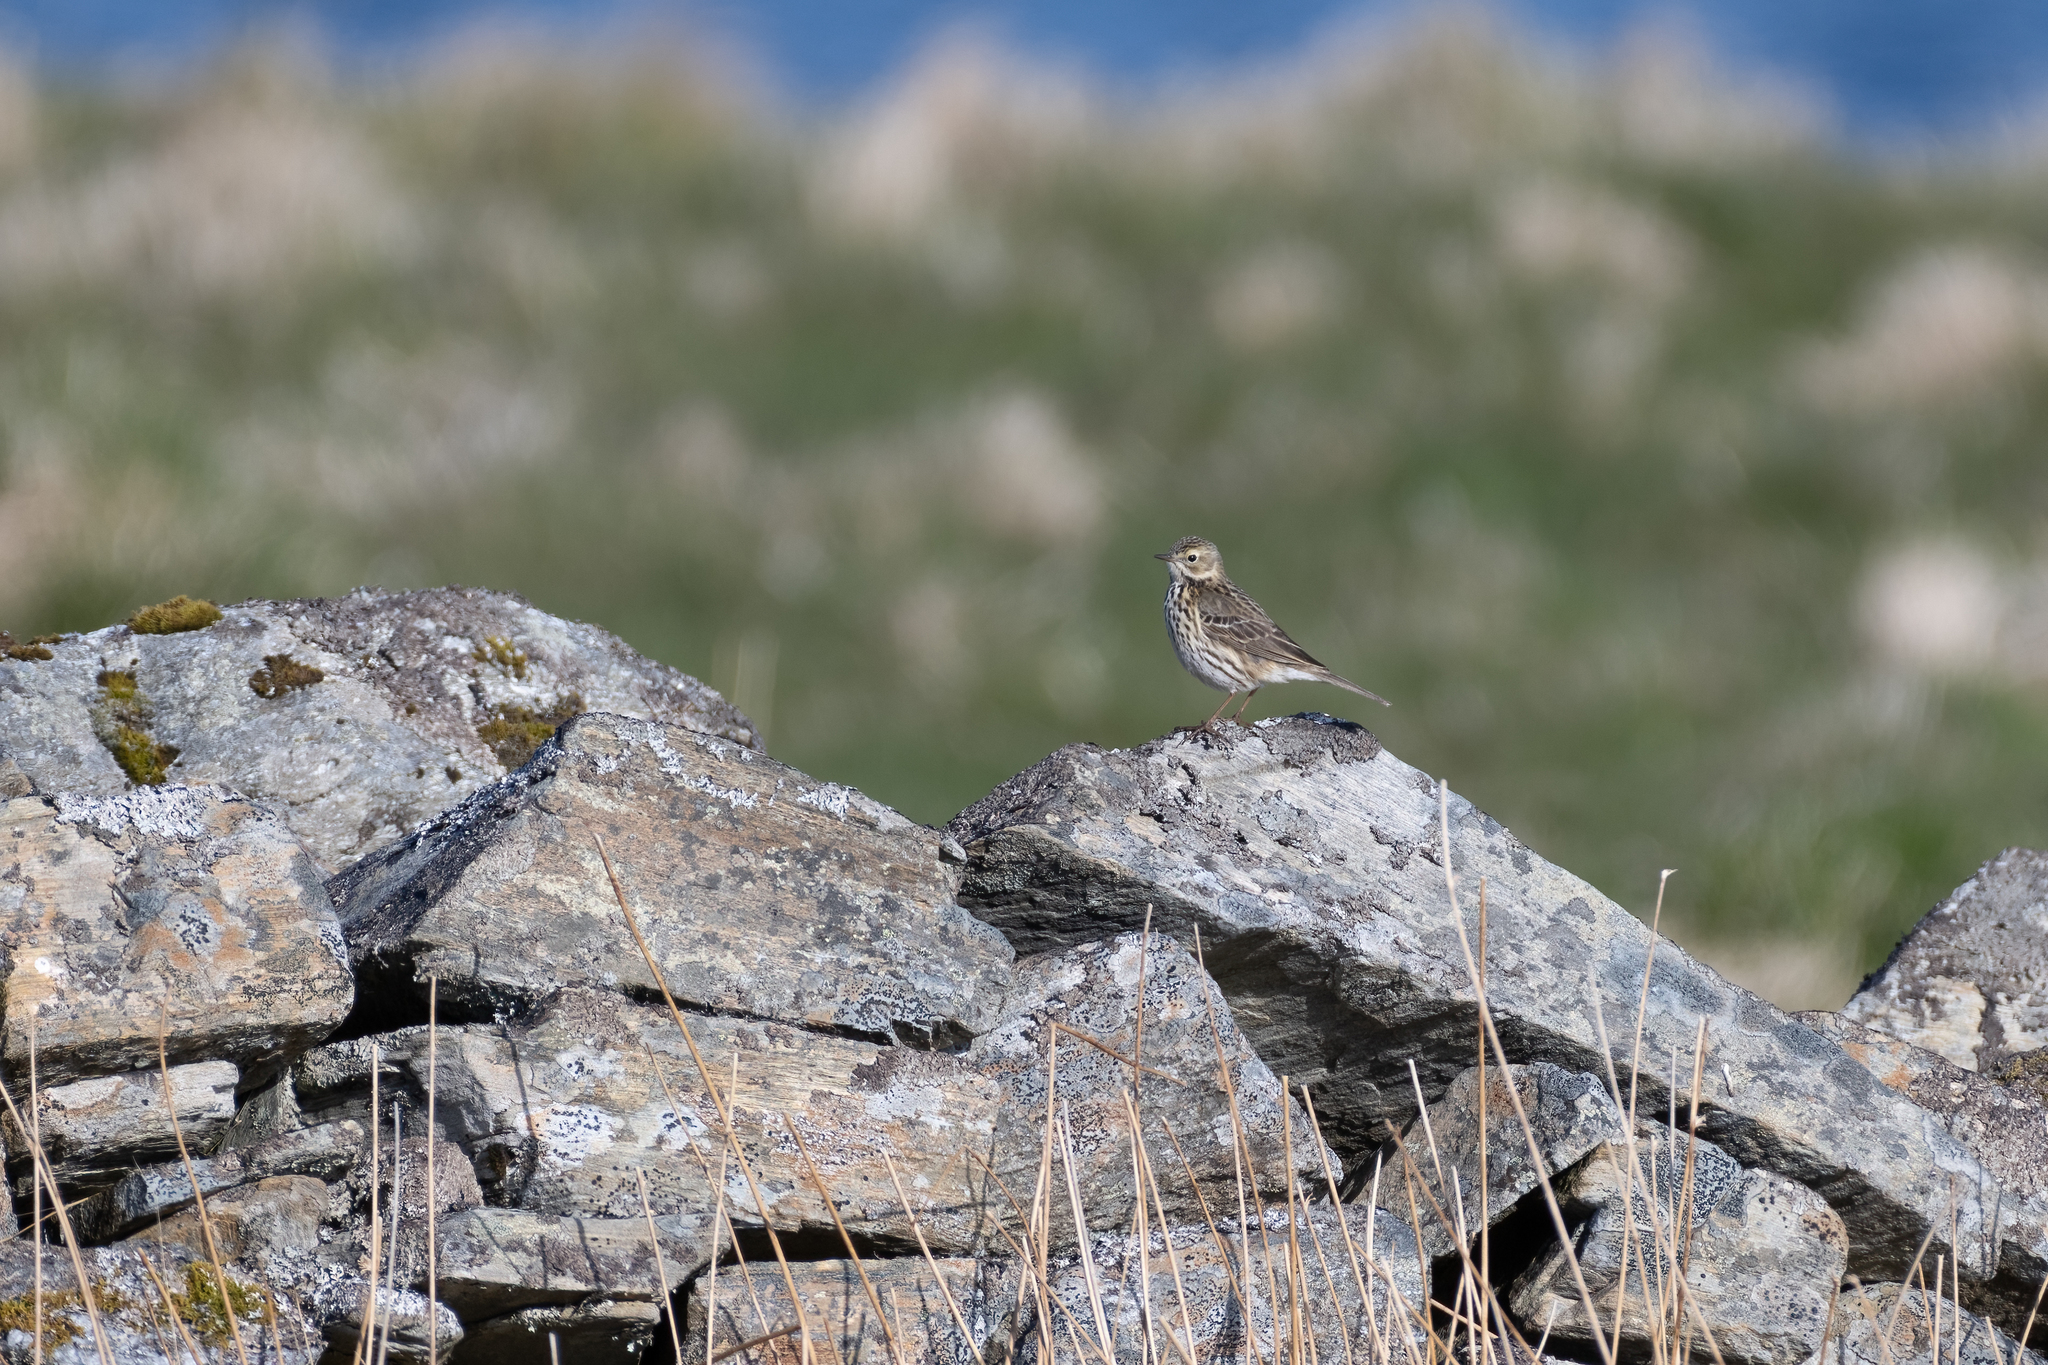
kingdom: Animalia
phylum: Chordata
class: Aves
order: Passeriformes
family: Motacillidae
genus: Anthus
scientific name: Anthus pratensis
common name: Meadow pipit
